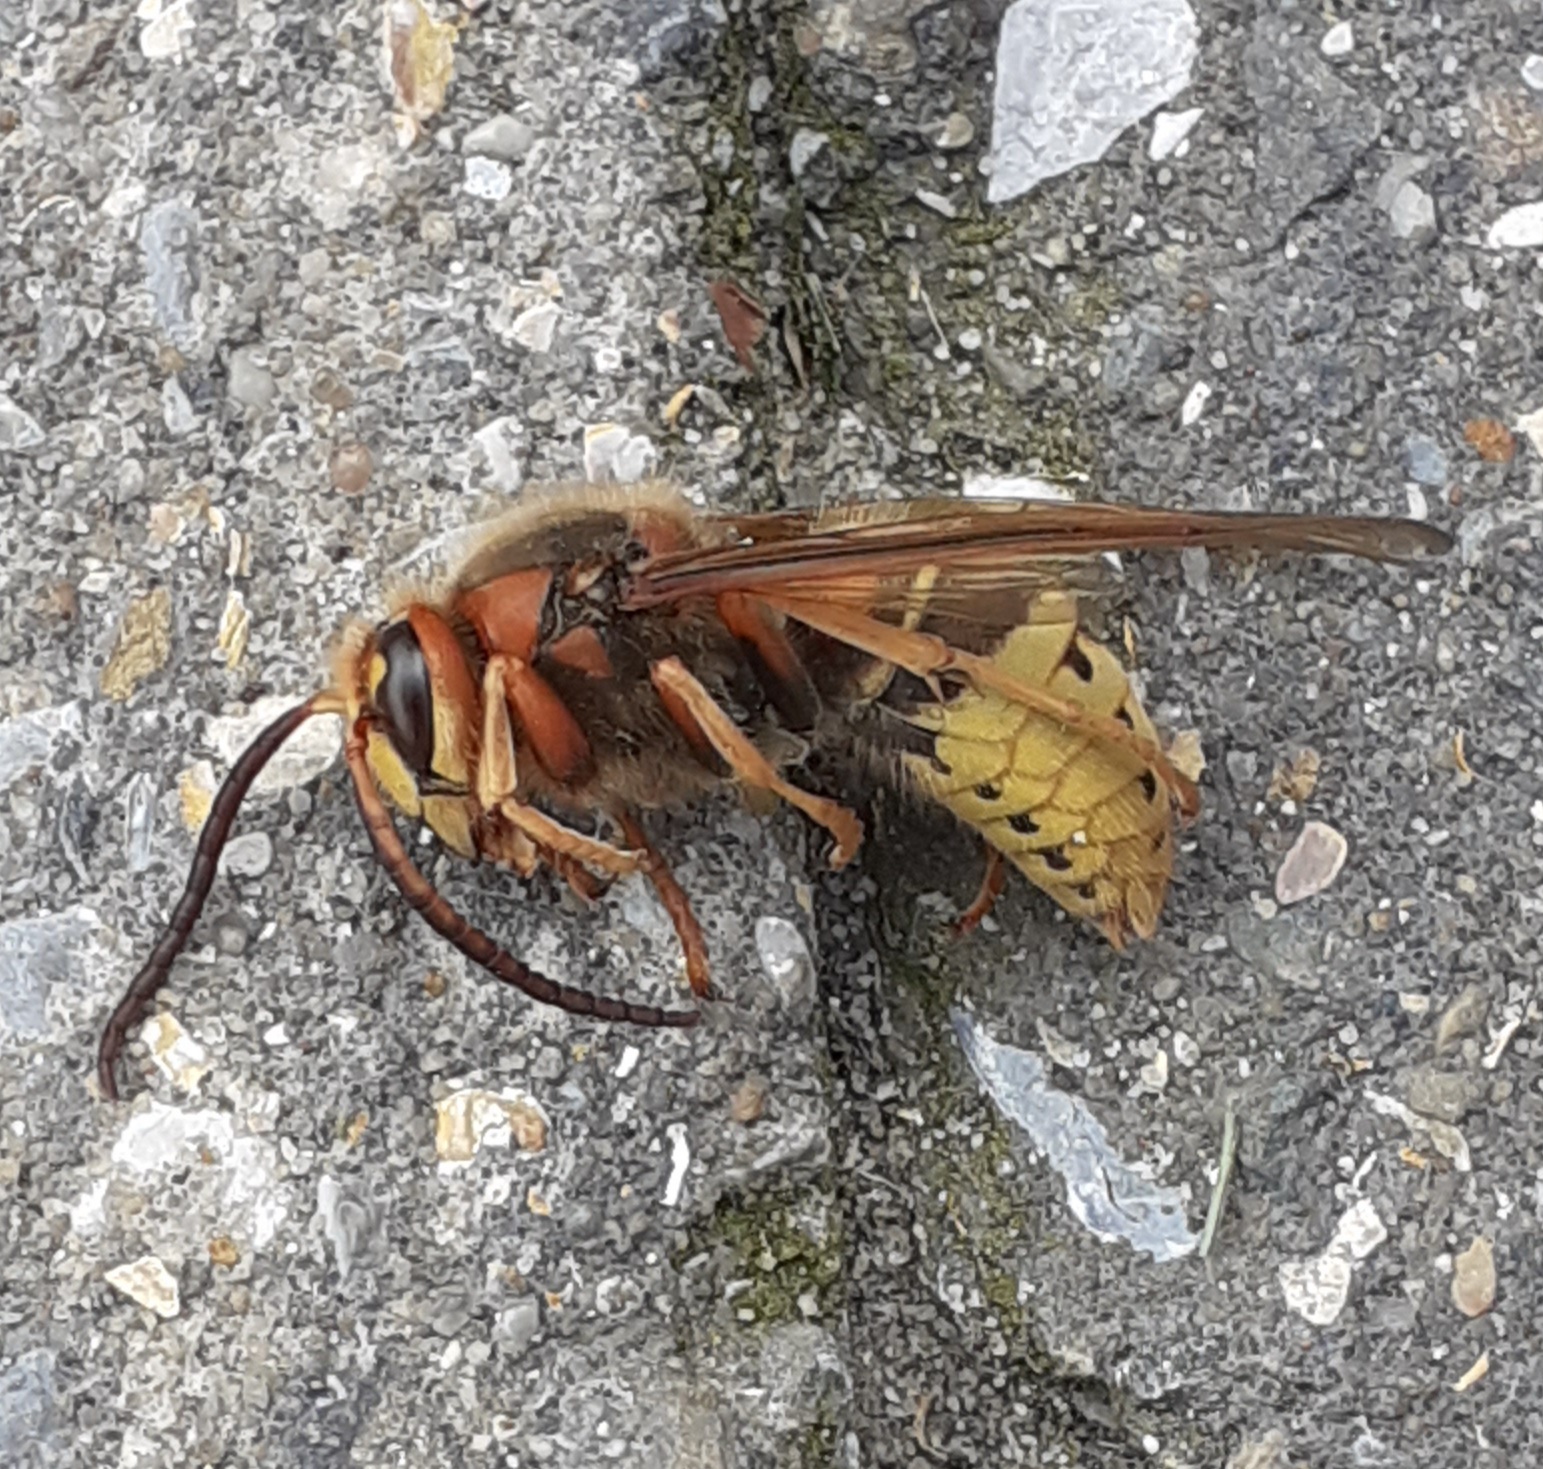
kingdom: Animalia
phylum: Arthropoda
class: Insecta
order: Hymenoptera
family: Vespidae
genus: Vespa
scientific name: Vespa crabro
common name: Hornet
